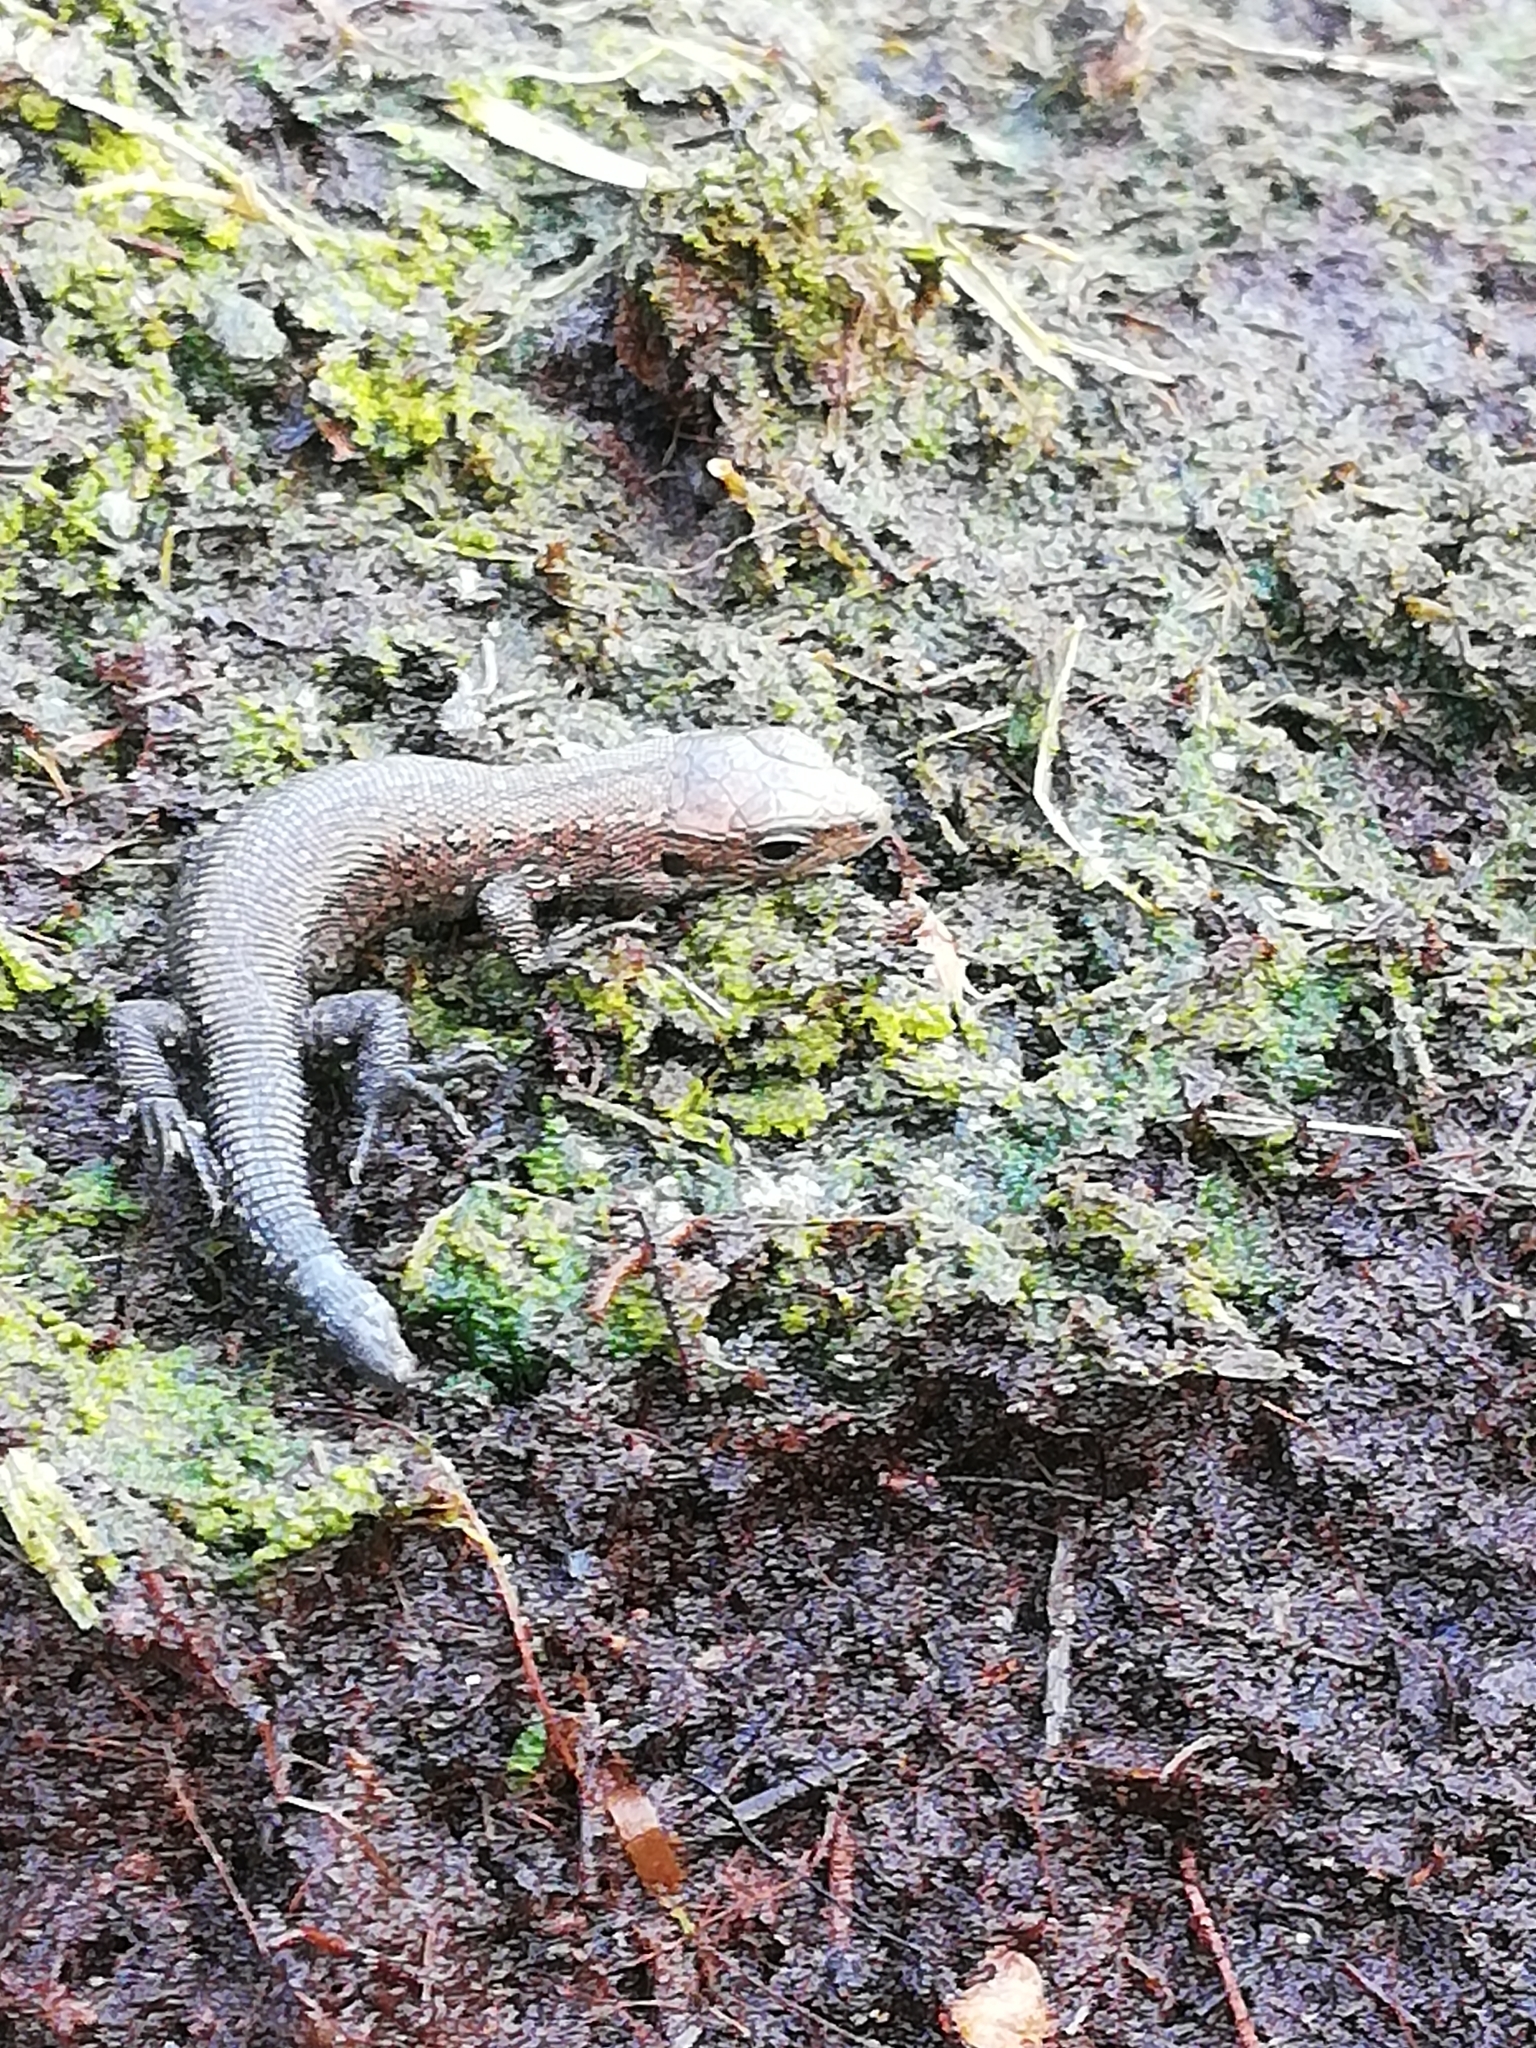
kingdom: Animalia
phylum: Chordata
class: Squamata
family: Lacertidae
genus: Zootoca
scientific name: Zootoca vivipara
